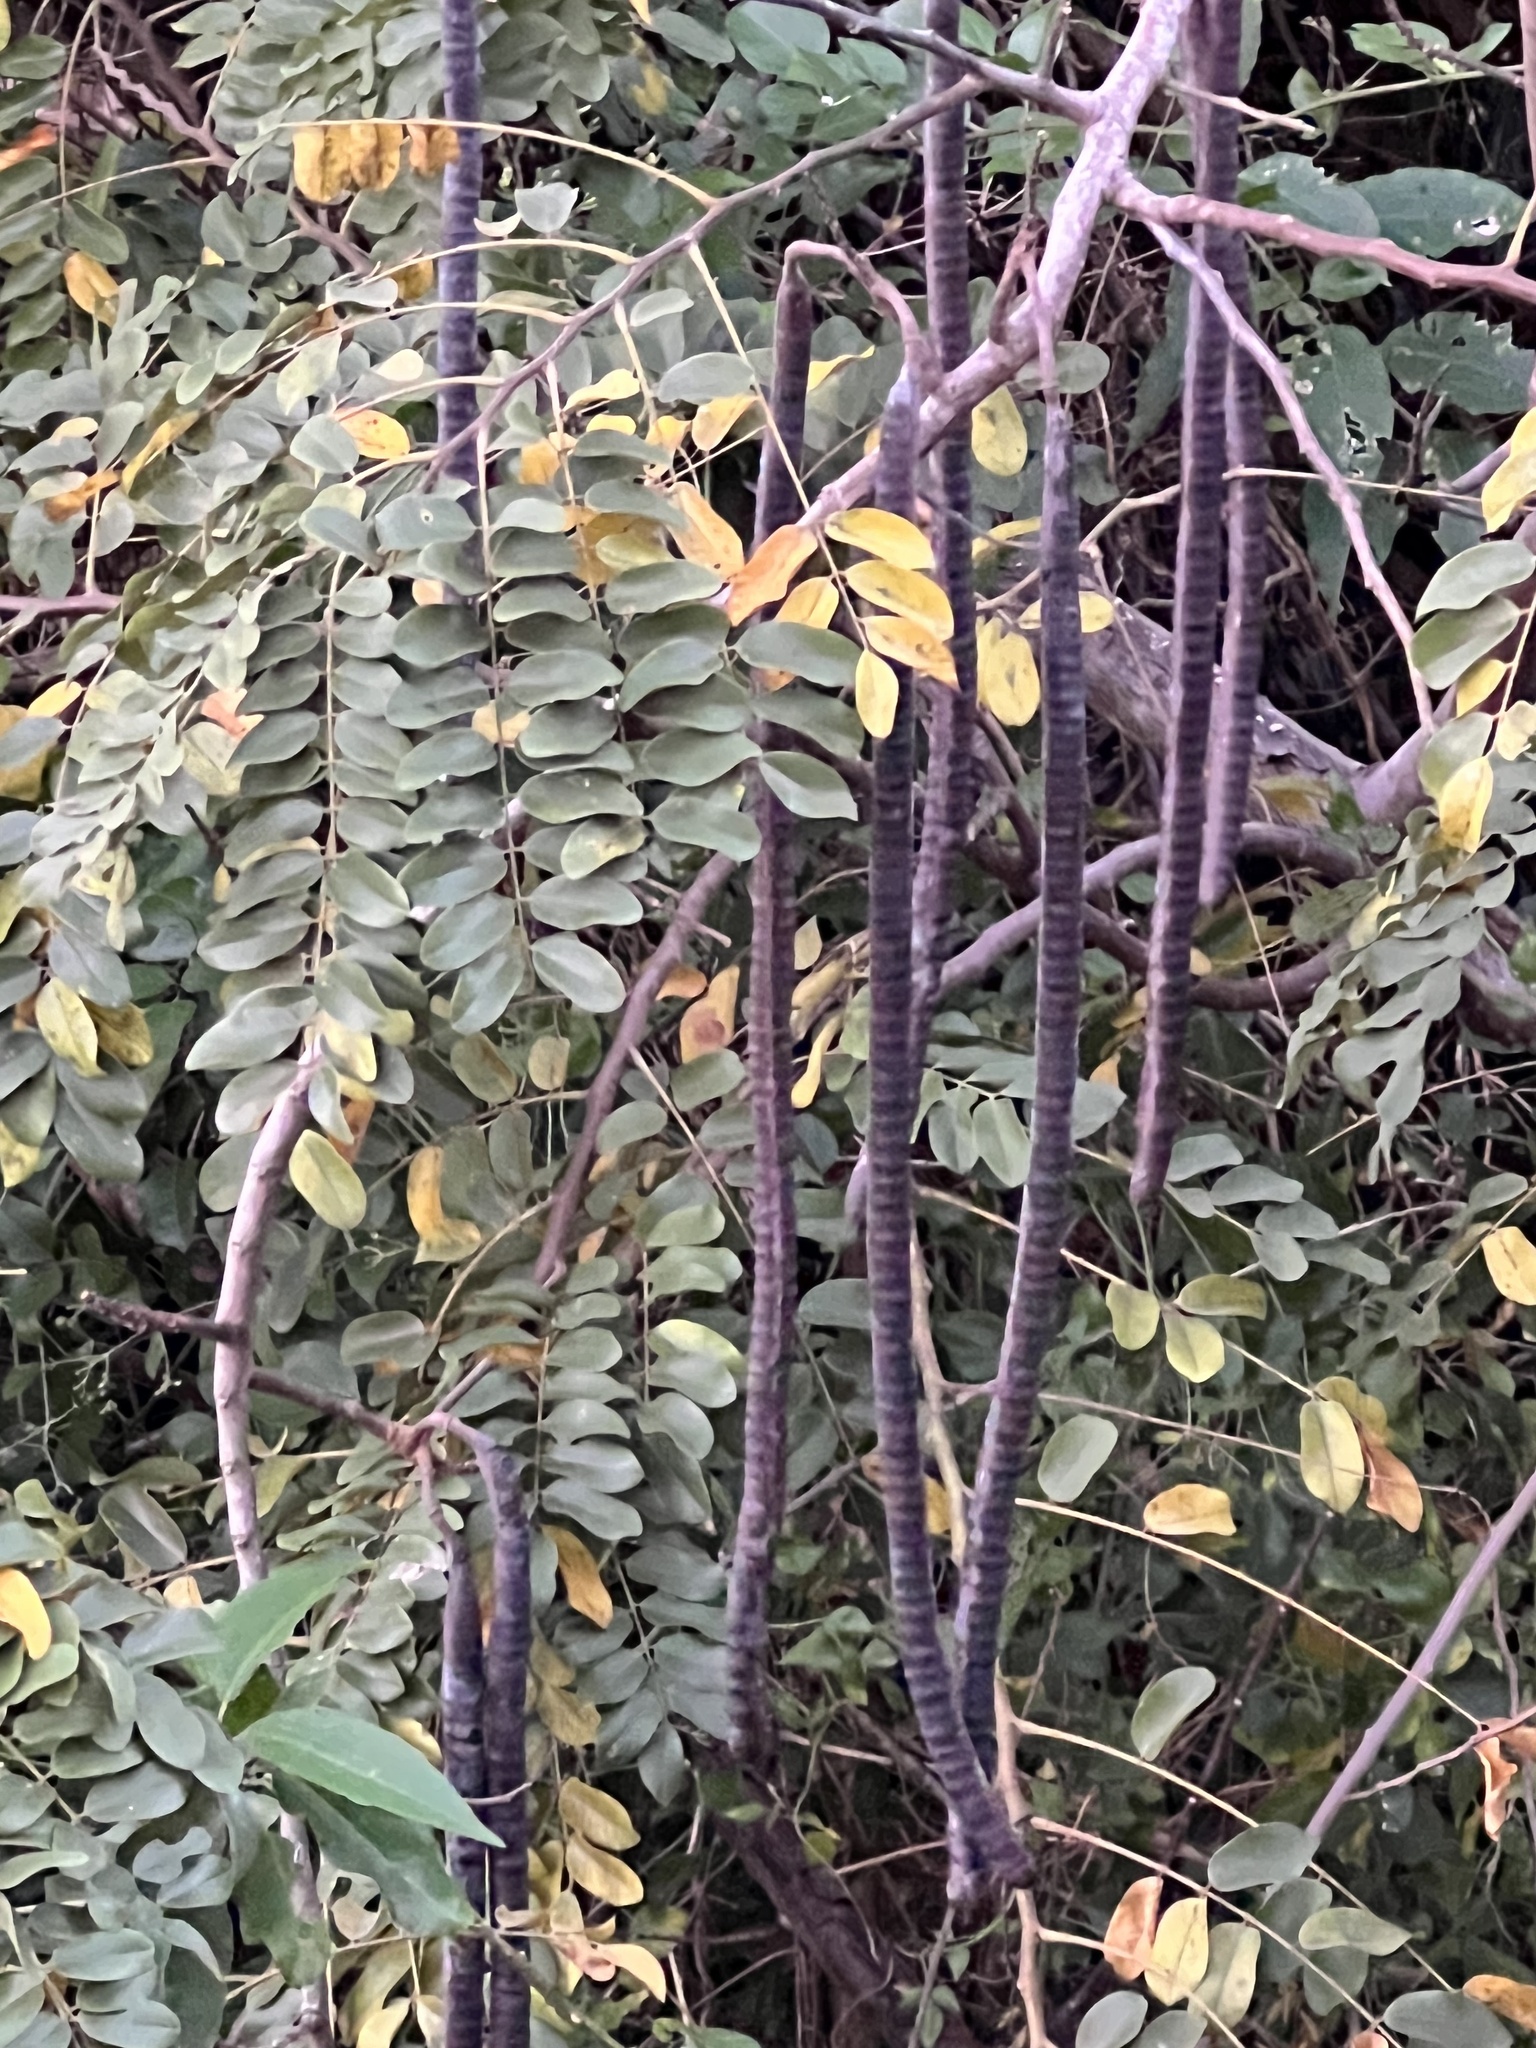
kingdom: Plantae
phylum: Tracheophyta
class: Magnoliopsida
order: Fabales
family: Fabaceae
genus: Cassia
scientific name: Cassia javanica
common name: Apple blossom
